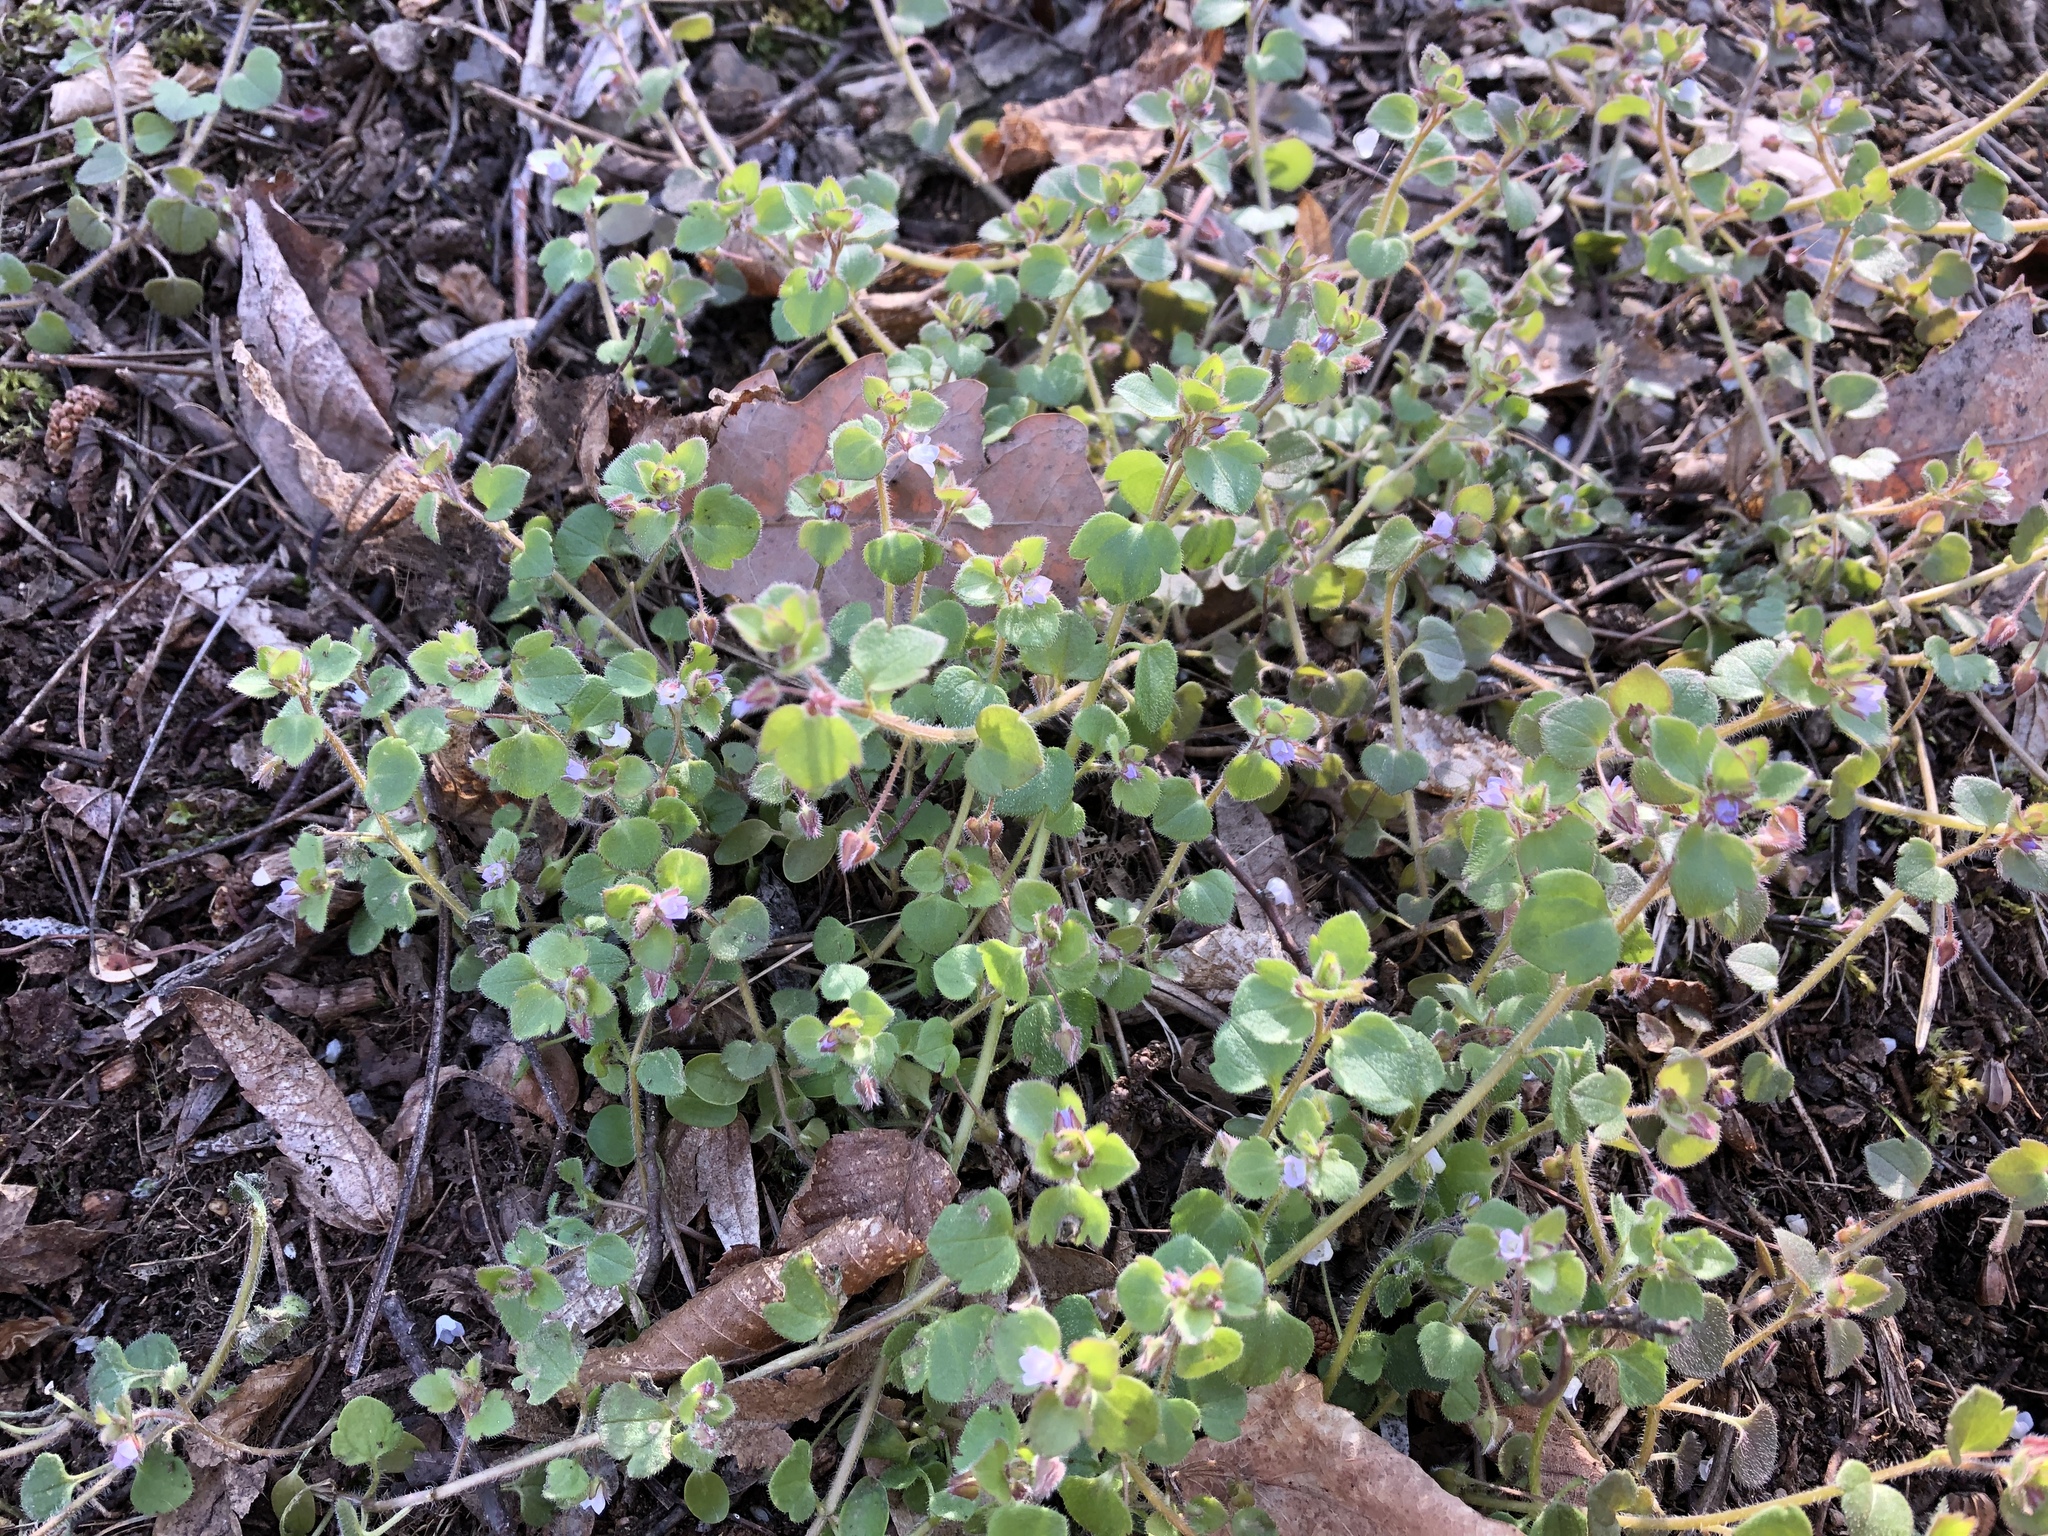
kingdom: Plantae
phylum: Tracheophyta
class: Magnoliopsida
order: Lamiales
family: Plantaginaceae
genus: Veronica
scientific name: Veronica sublobata
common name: False ivy-leaved speedwell
